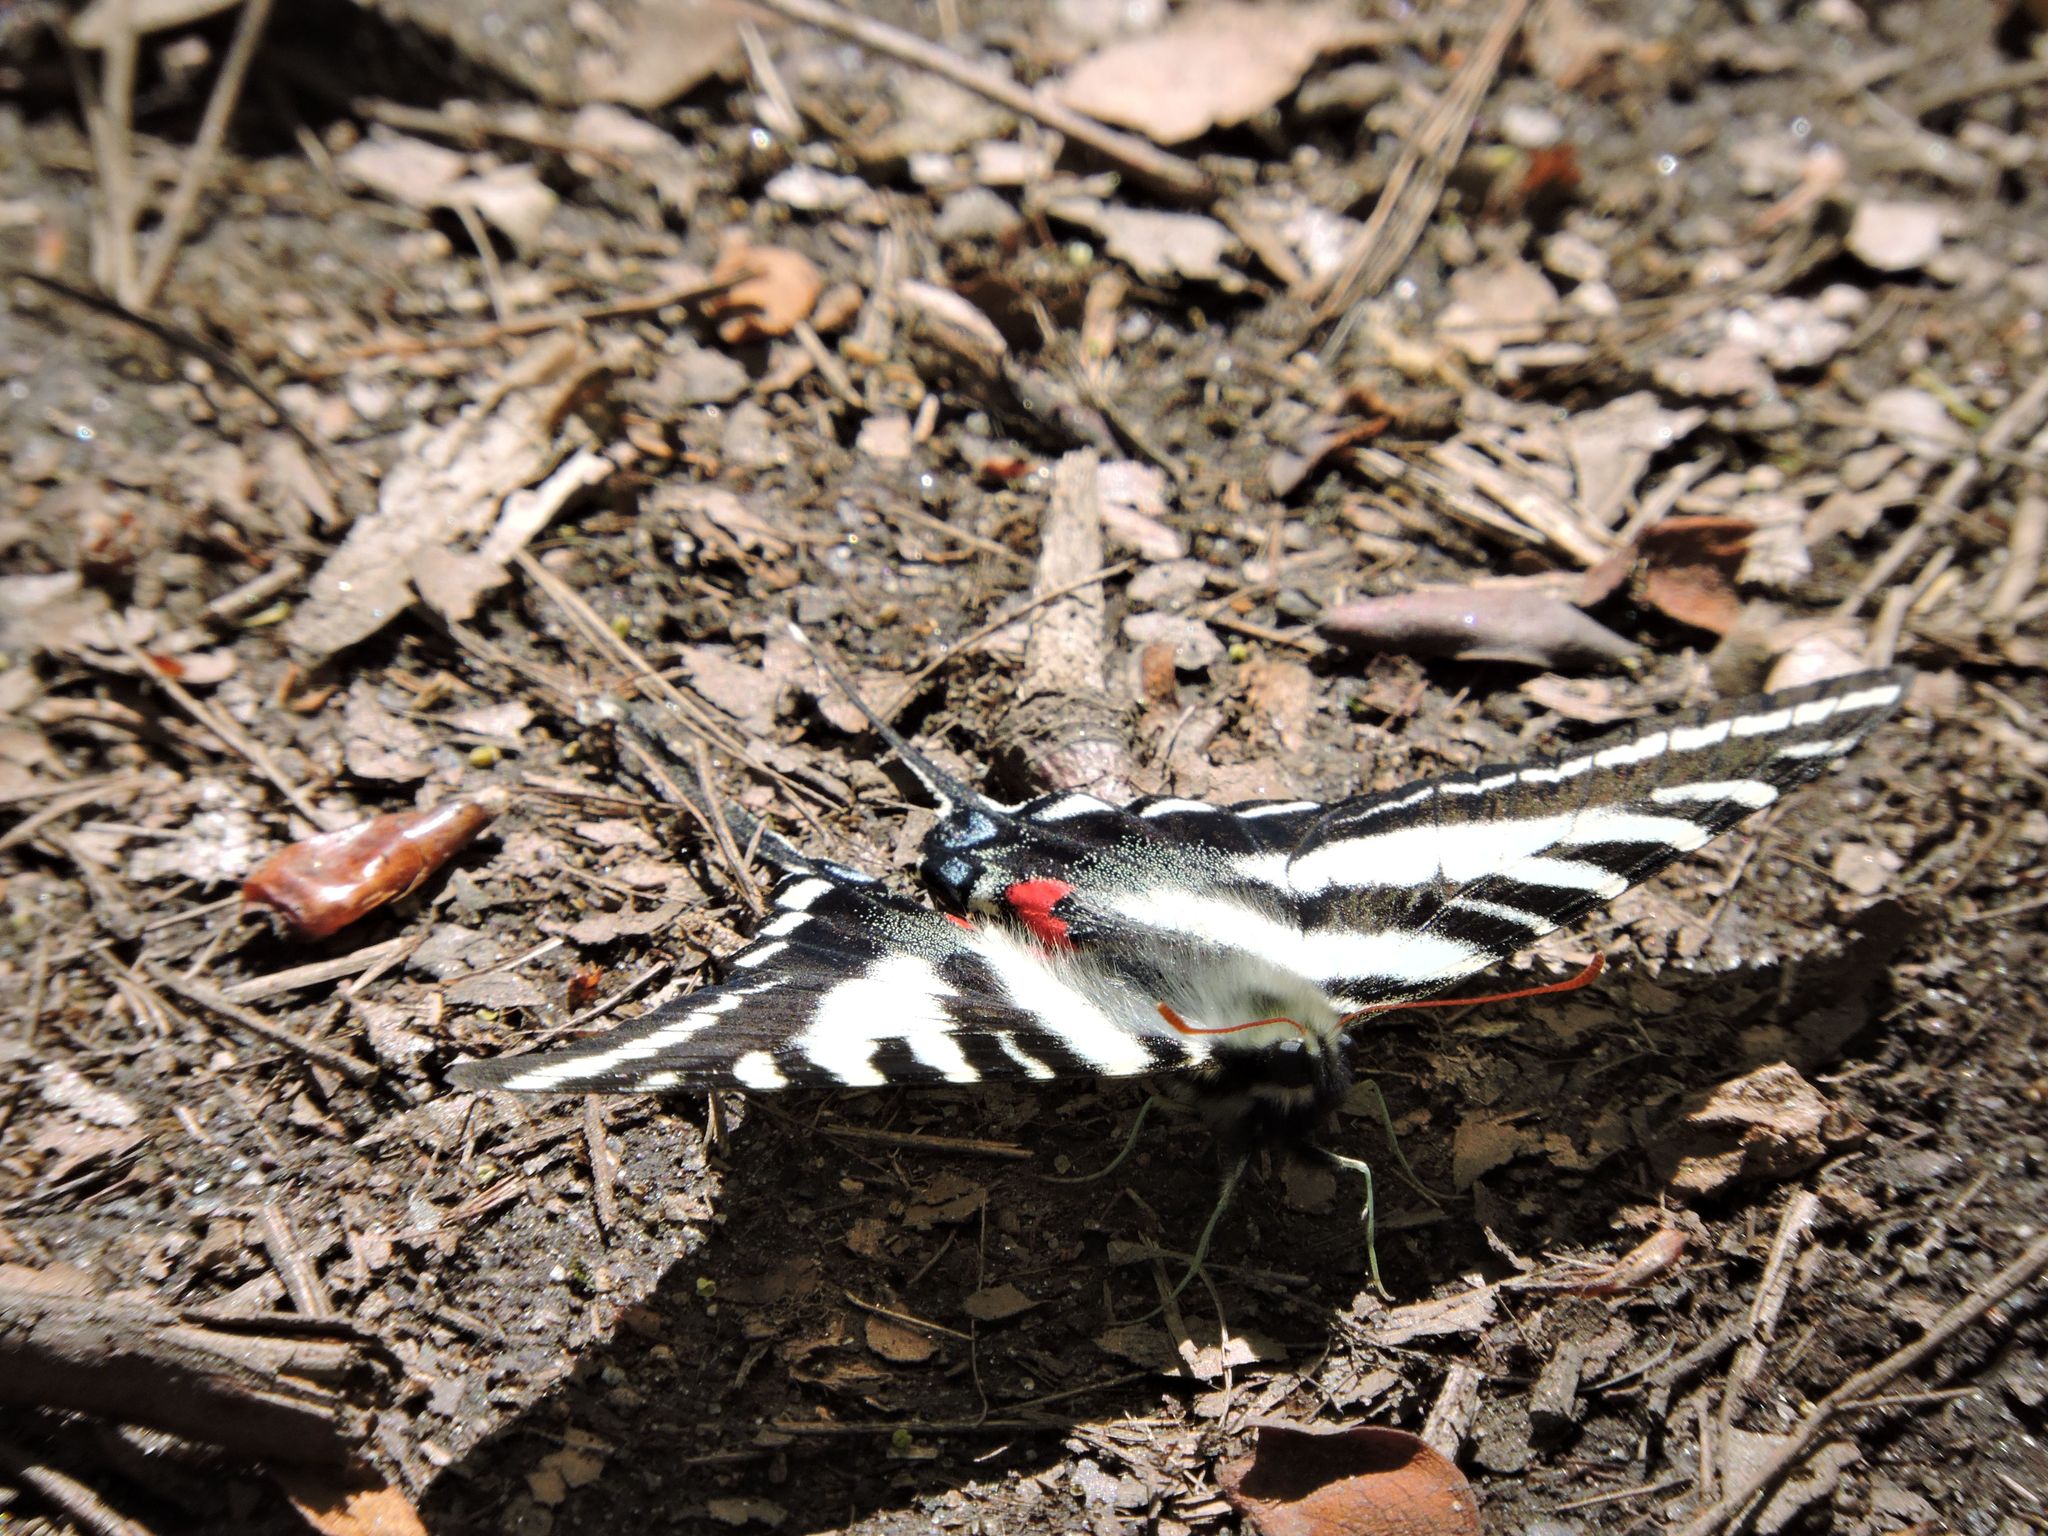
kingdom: Animalia
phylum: Arthropoda
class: Insecta
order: Lepidoptera
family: Papilionidae
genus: Protographium
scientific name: Protographium marcellus
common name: Zebra swallowtail
